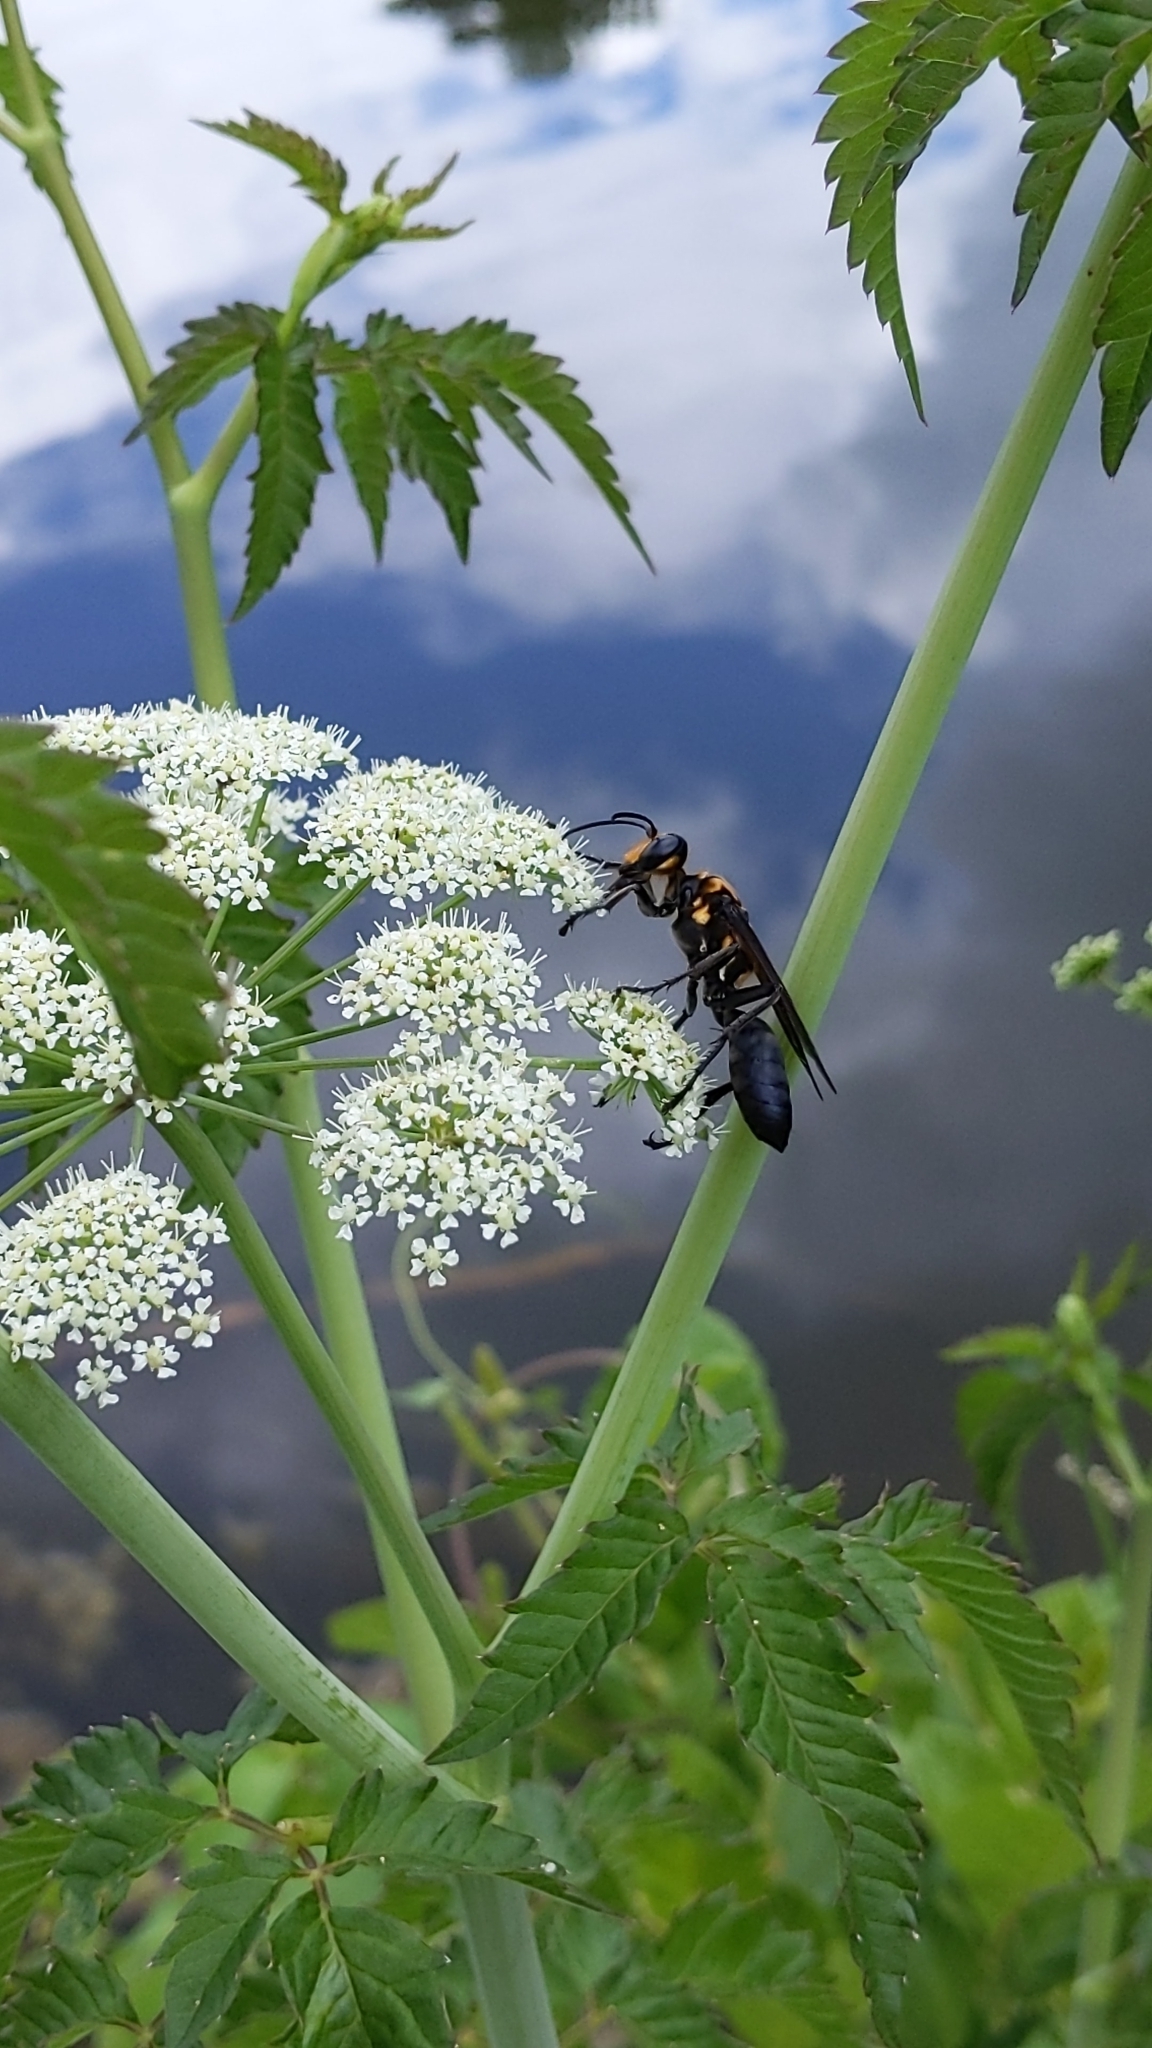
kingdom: Animalia
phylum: Arthropoda
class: Insecta
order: Hymenoptera
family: Sphecidae
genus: Sphex
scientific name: Sphex habenus
